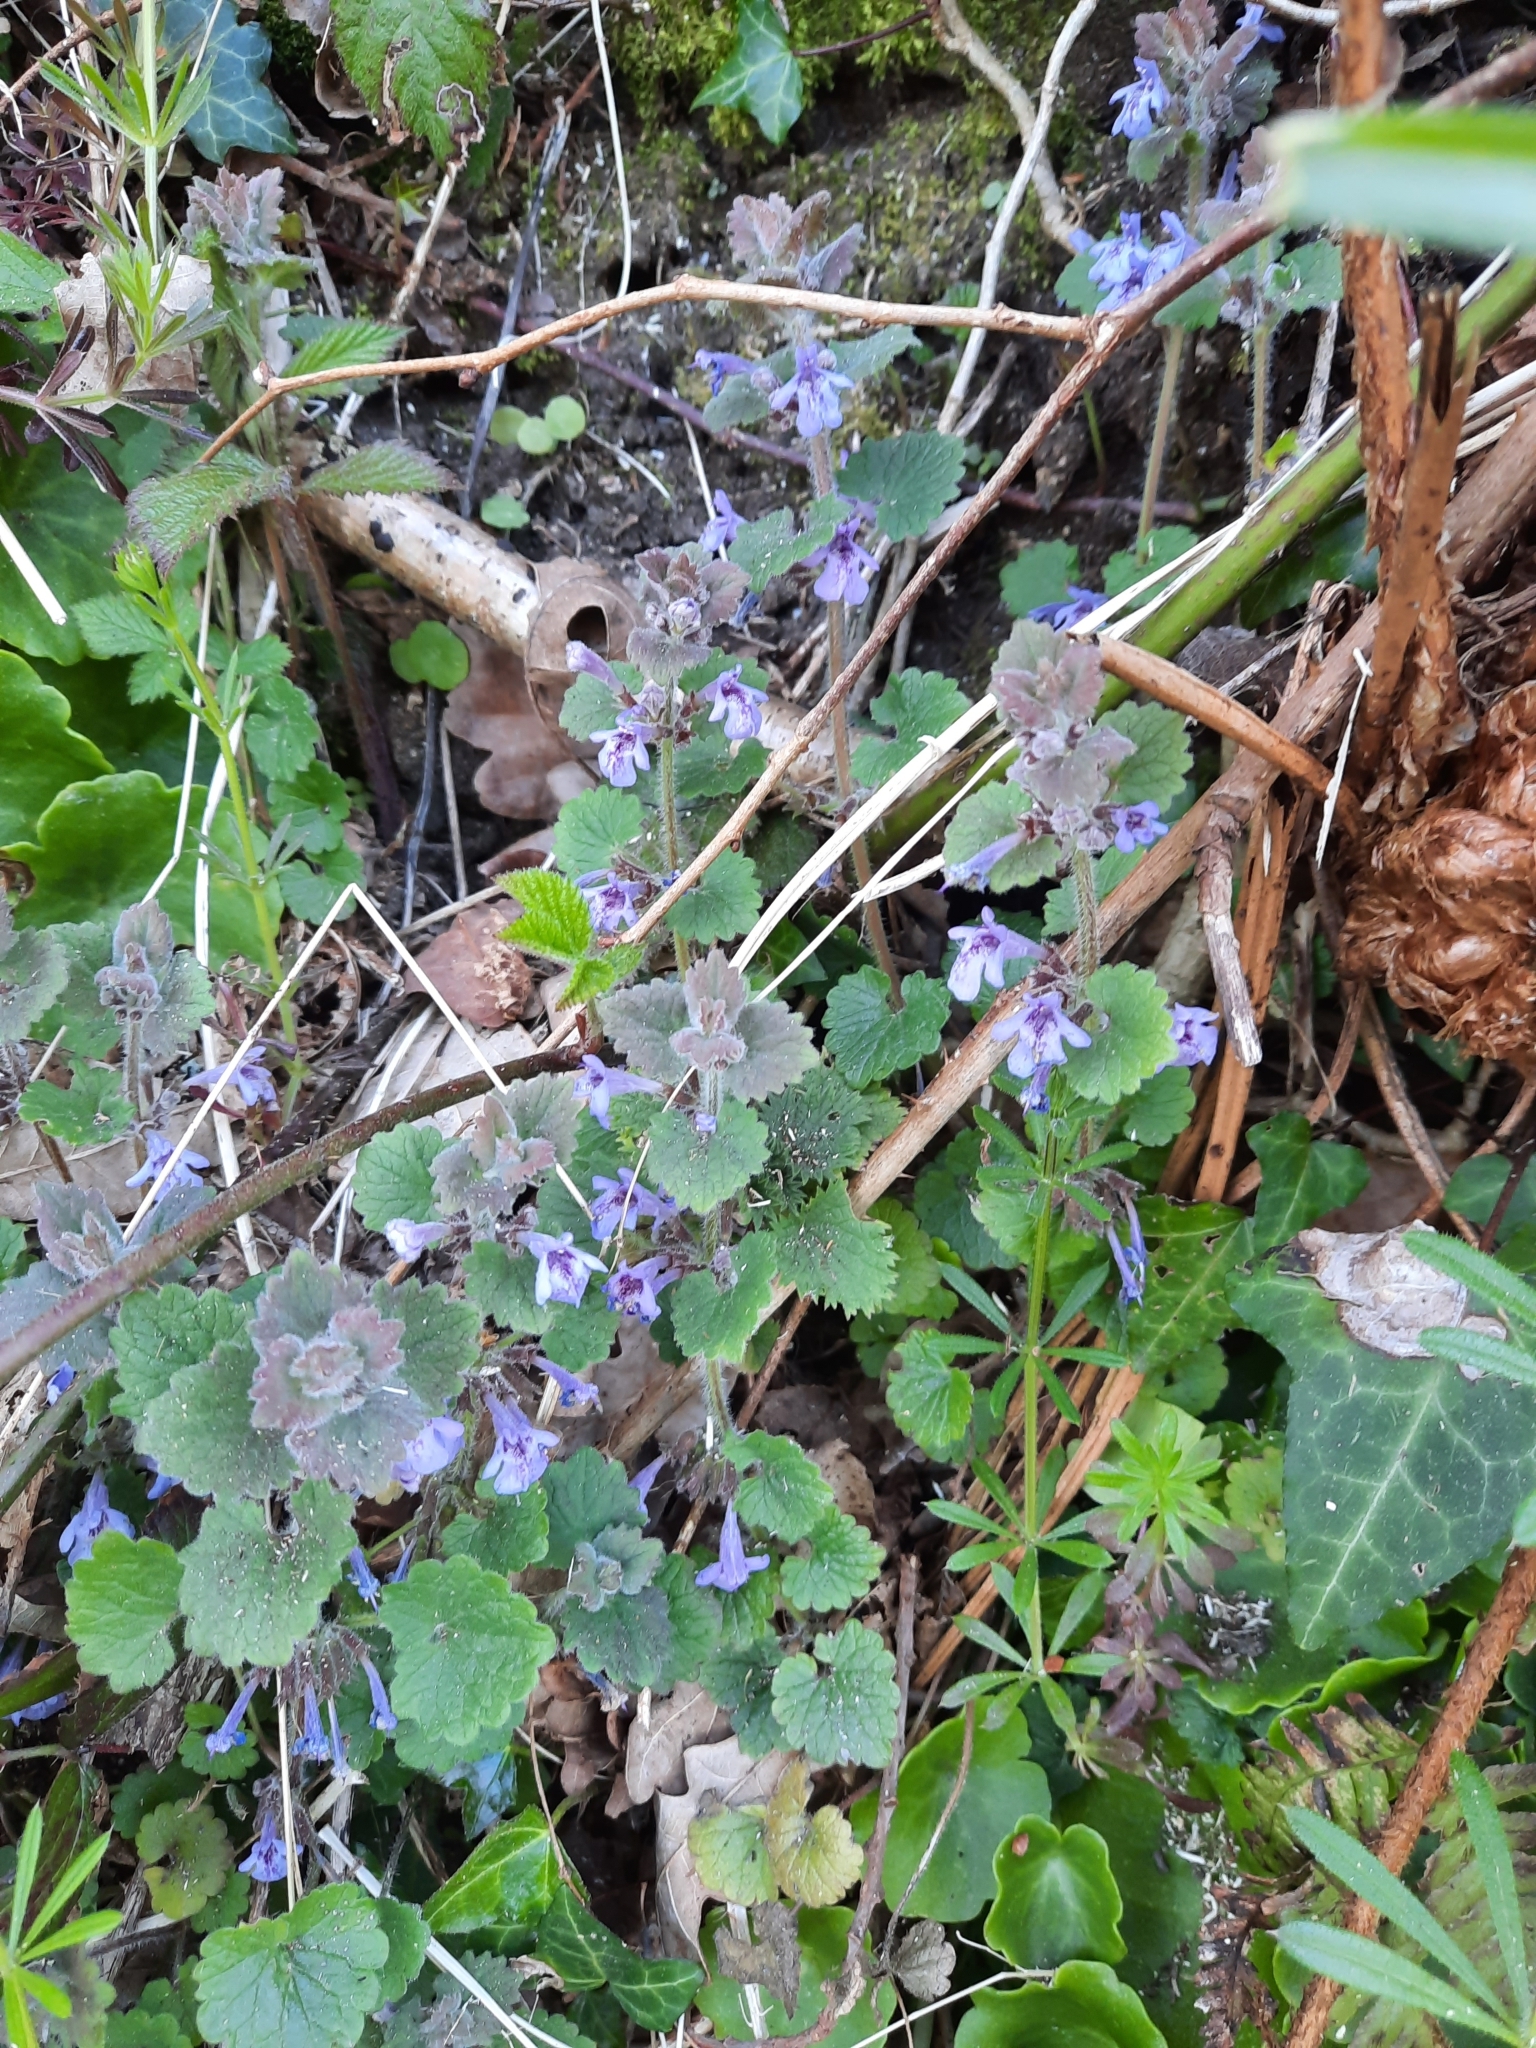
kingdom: Plantae
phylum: Tracheophyta
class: Magnoliopsida
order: Lamiales
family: Lamiaceae
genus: Glechoma
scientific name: Glechoma hederacea
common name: Ground ivy
